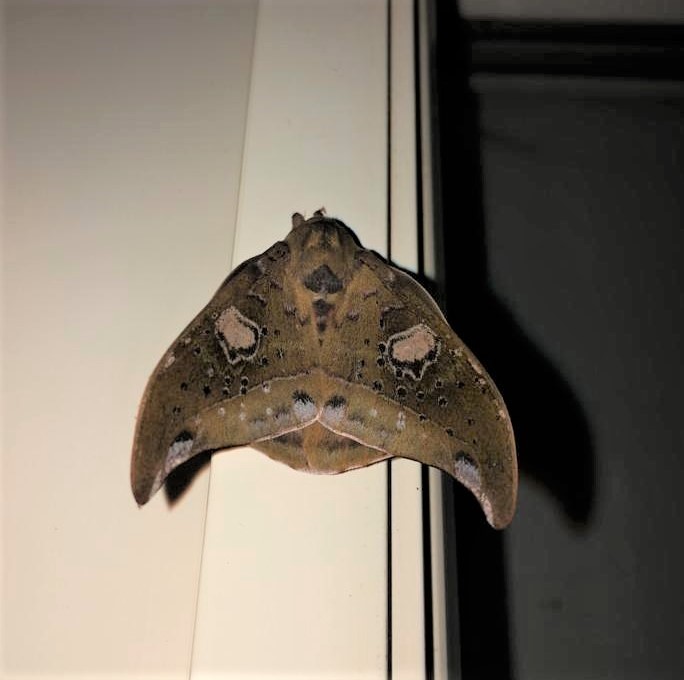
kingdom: Animalia
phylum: Arthropoda
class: Insecta
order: Lepidoptera
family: Saturniidae
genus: Automerina
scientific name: Automerina auletes
